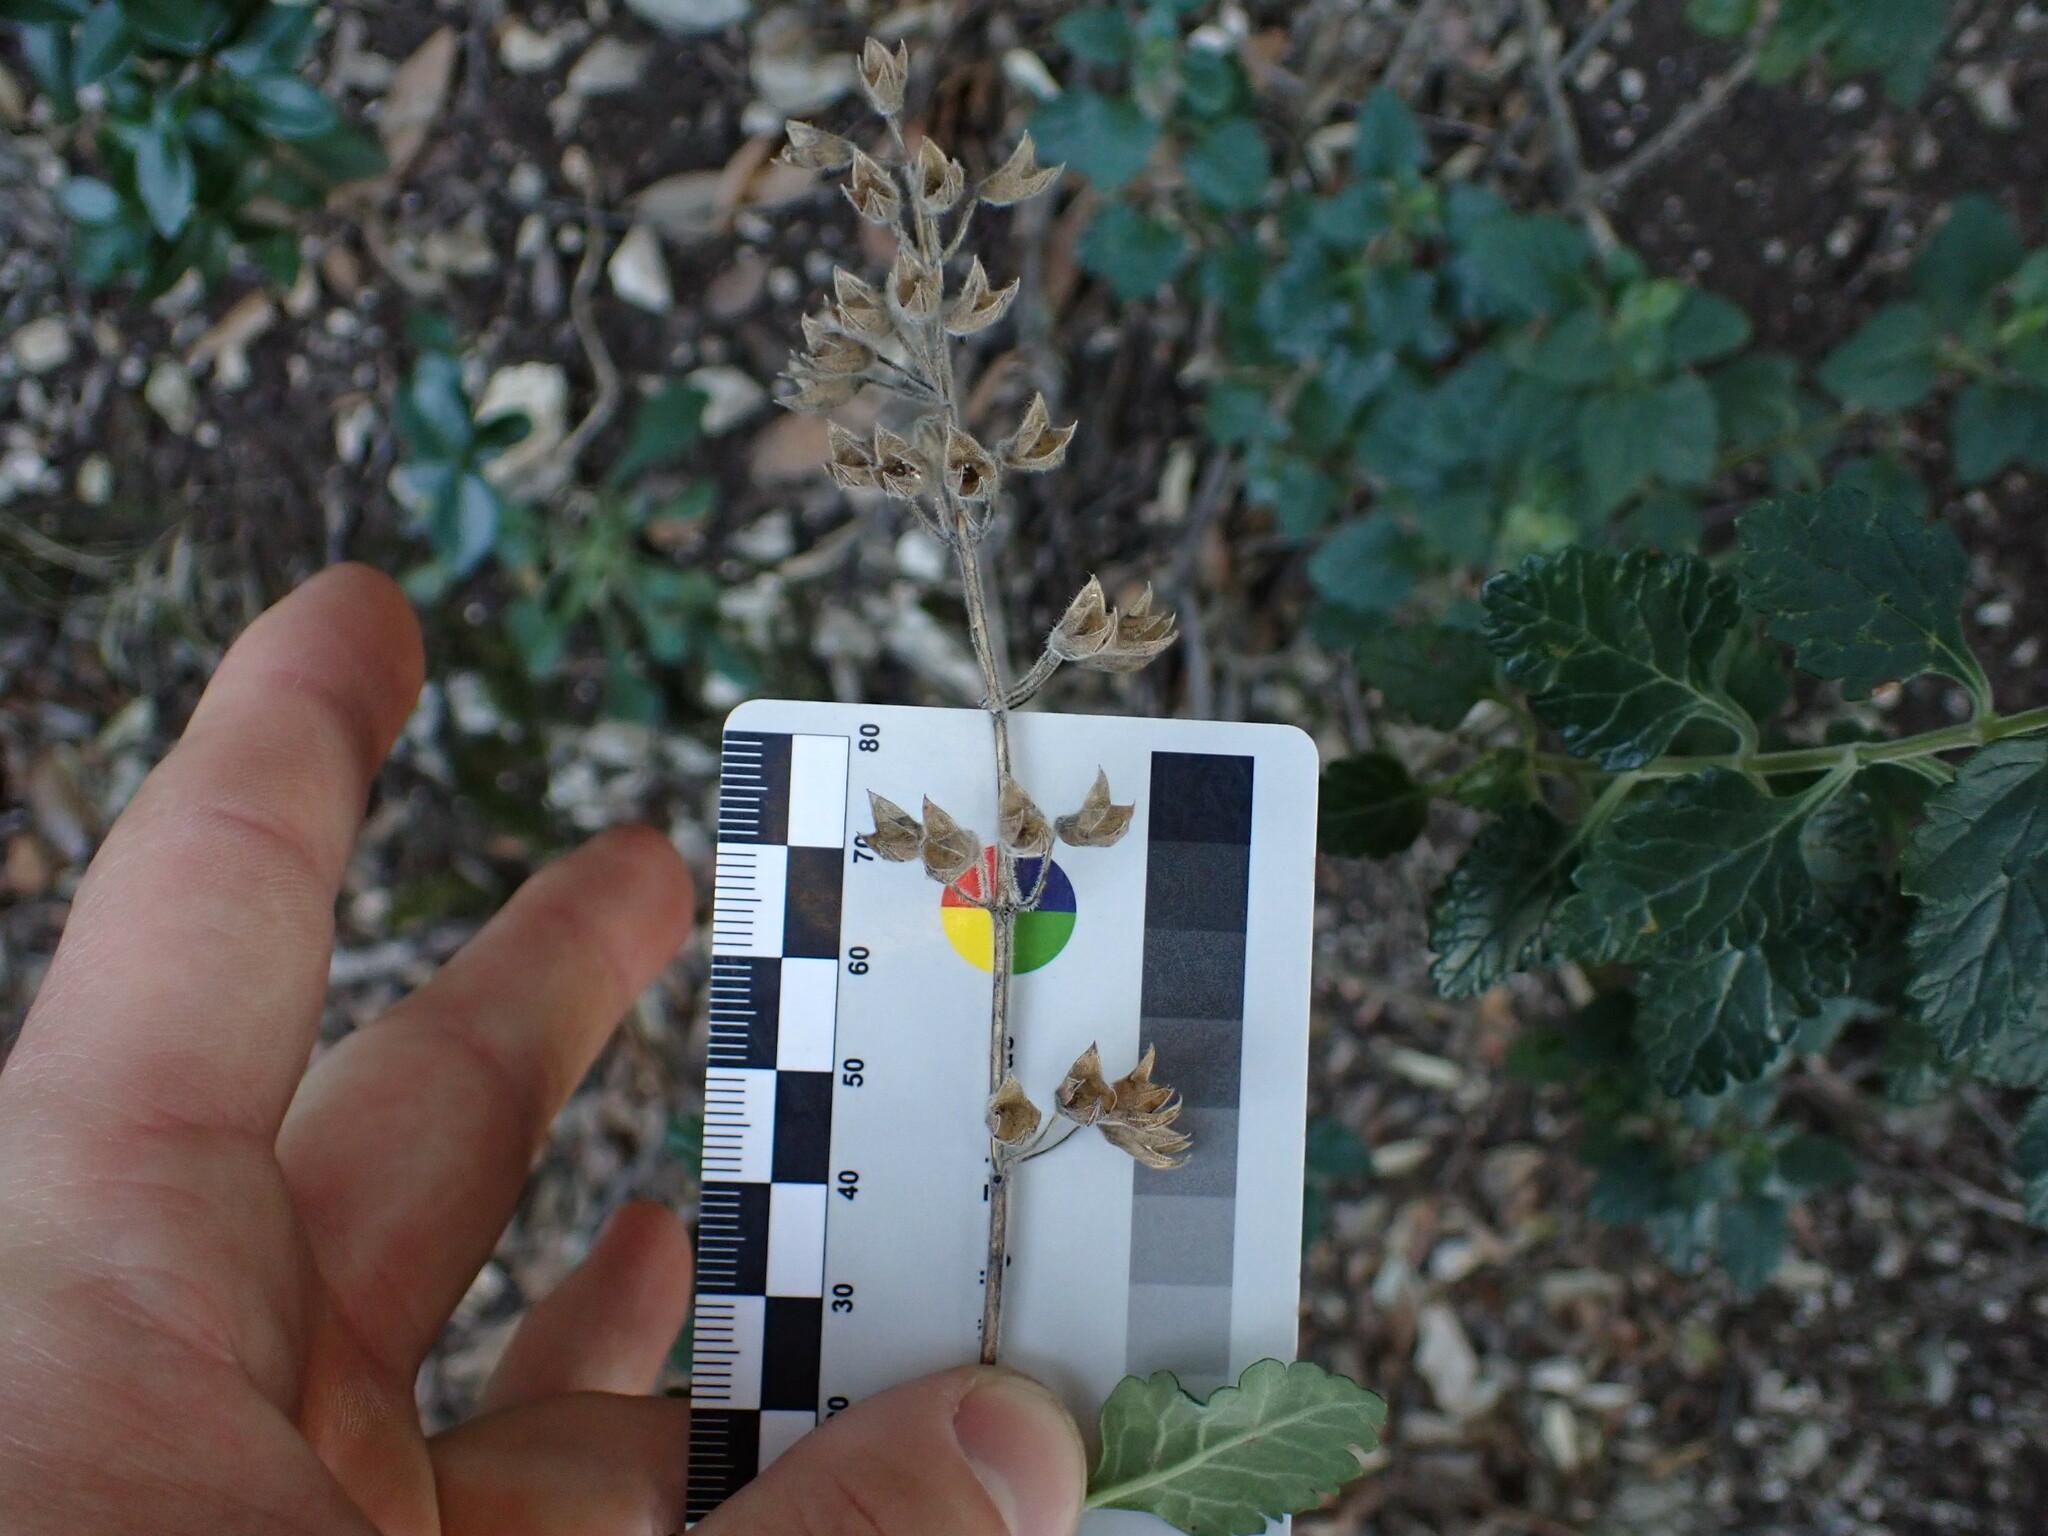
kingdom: Plantae
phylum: Tracheophyta
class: Magnoliopsida
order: Lamiales
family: Lamiaceae
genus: Teucrium
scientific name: Teucrium flavum
